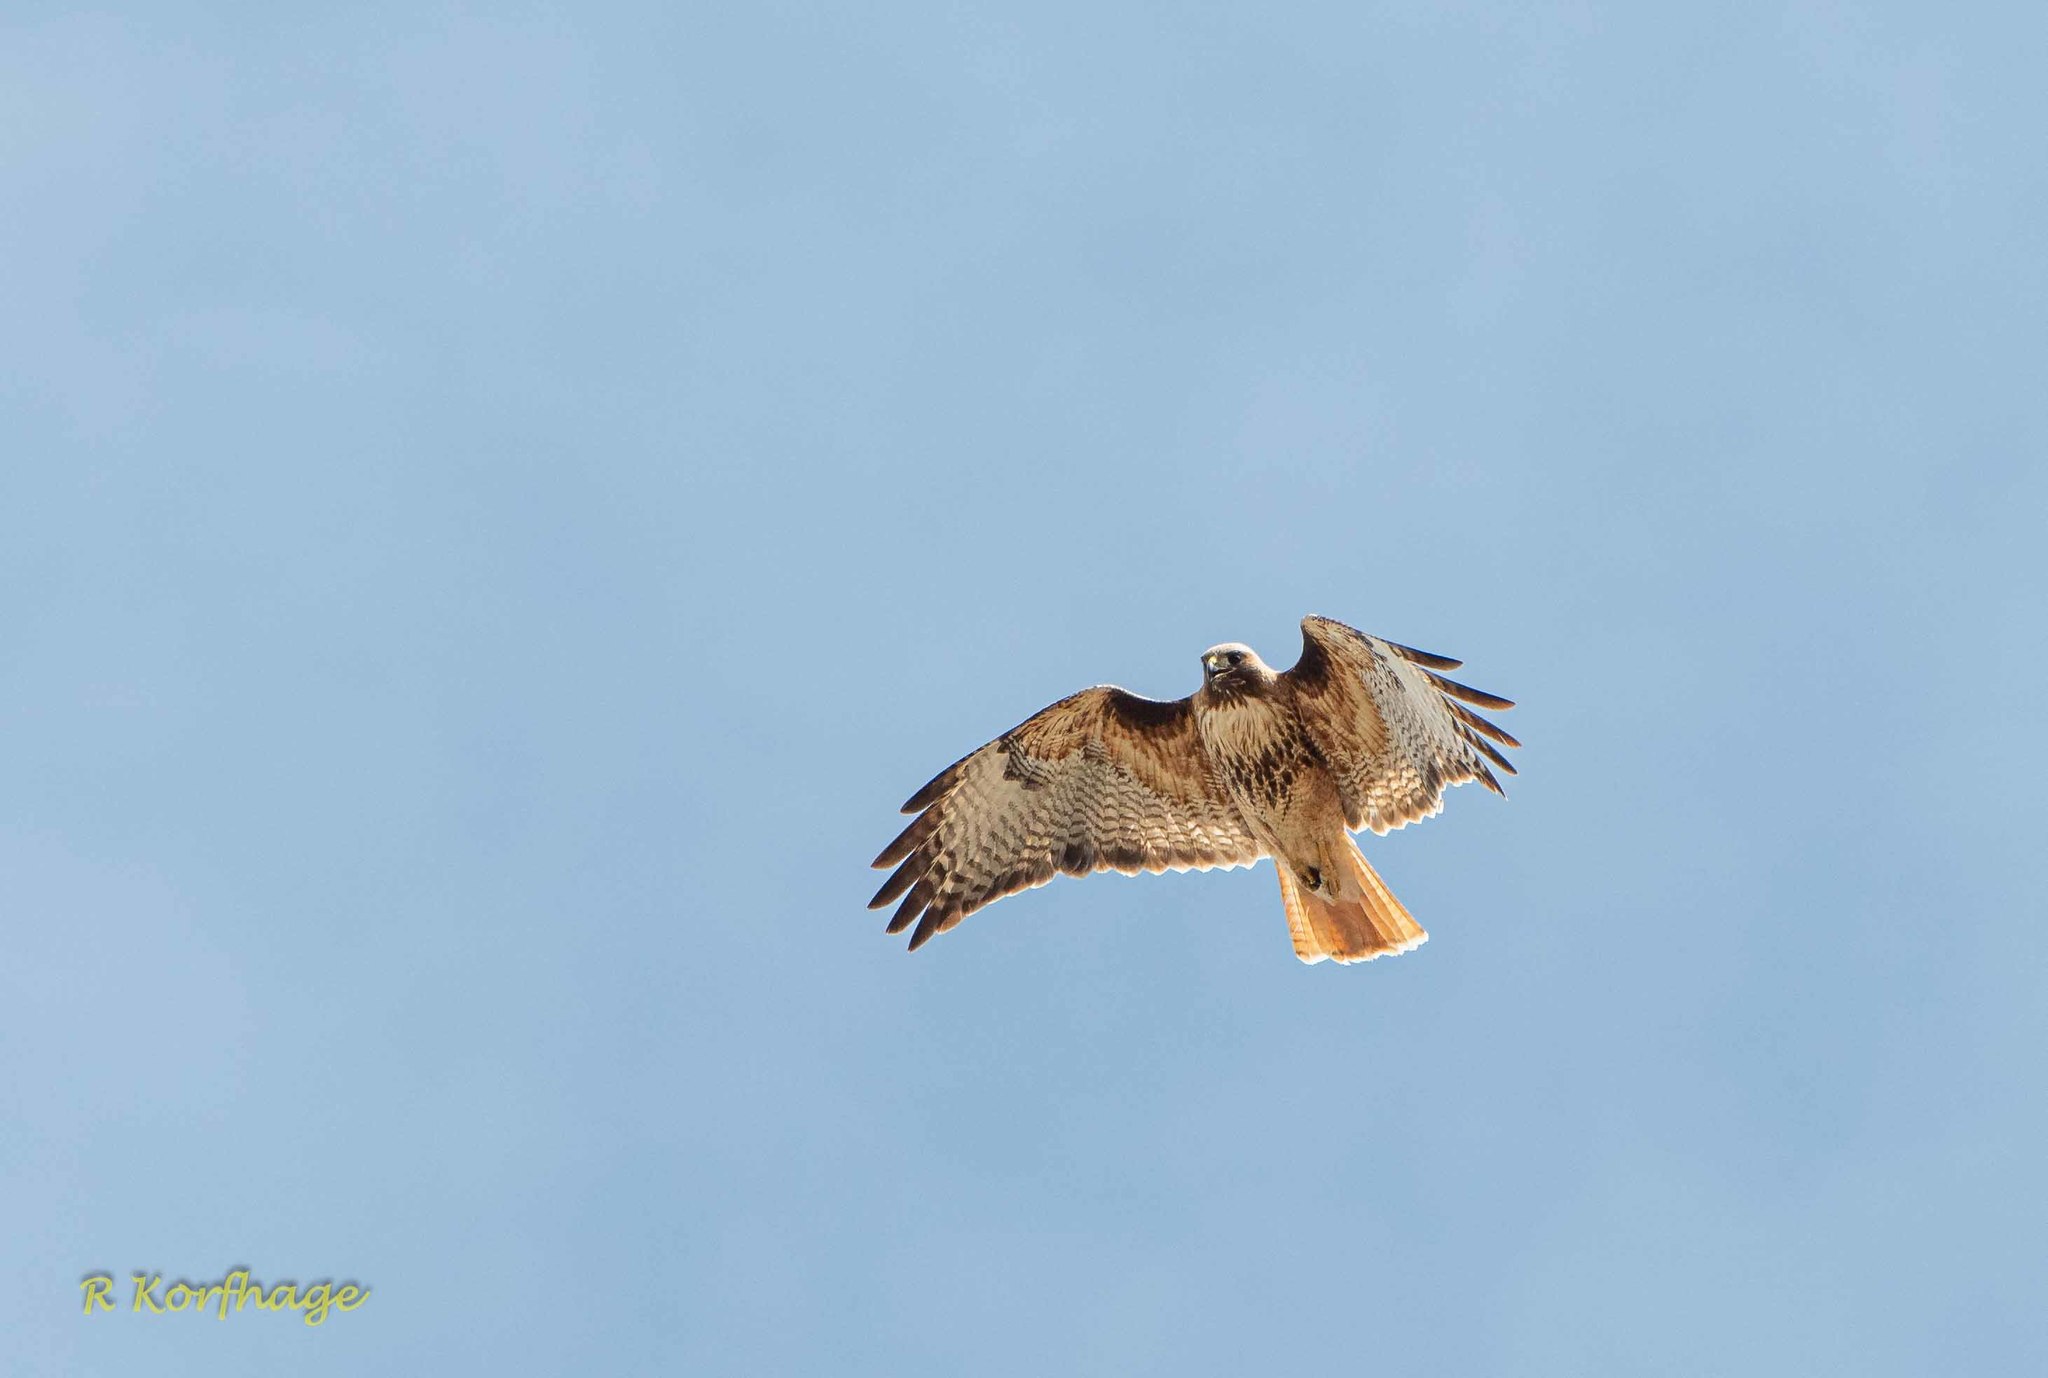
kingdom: Animalia
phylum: Chordata
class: Aves
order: Accipitriformes
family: Accipitridae
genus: Buteo
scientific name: Buteo jamaicensis
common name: Red-tailed hawk
